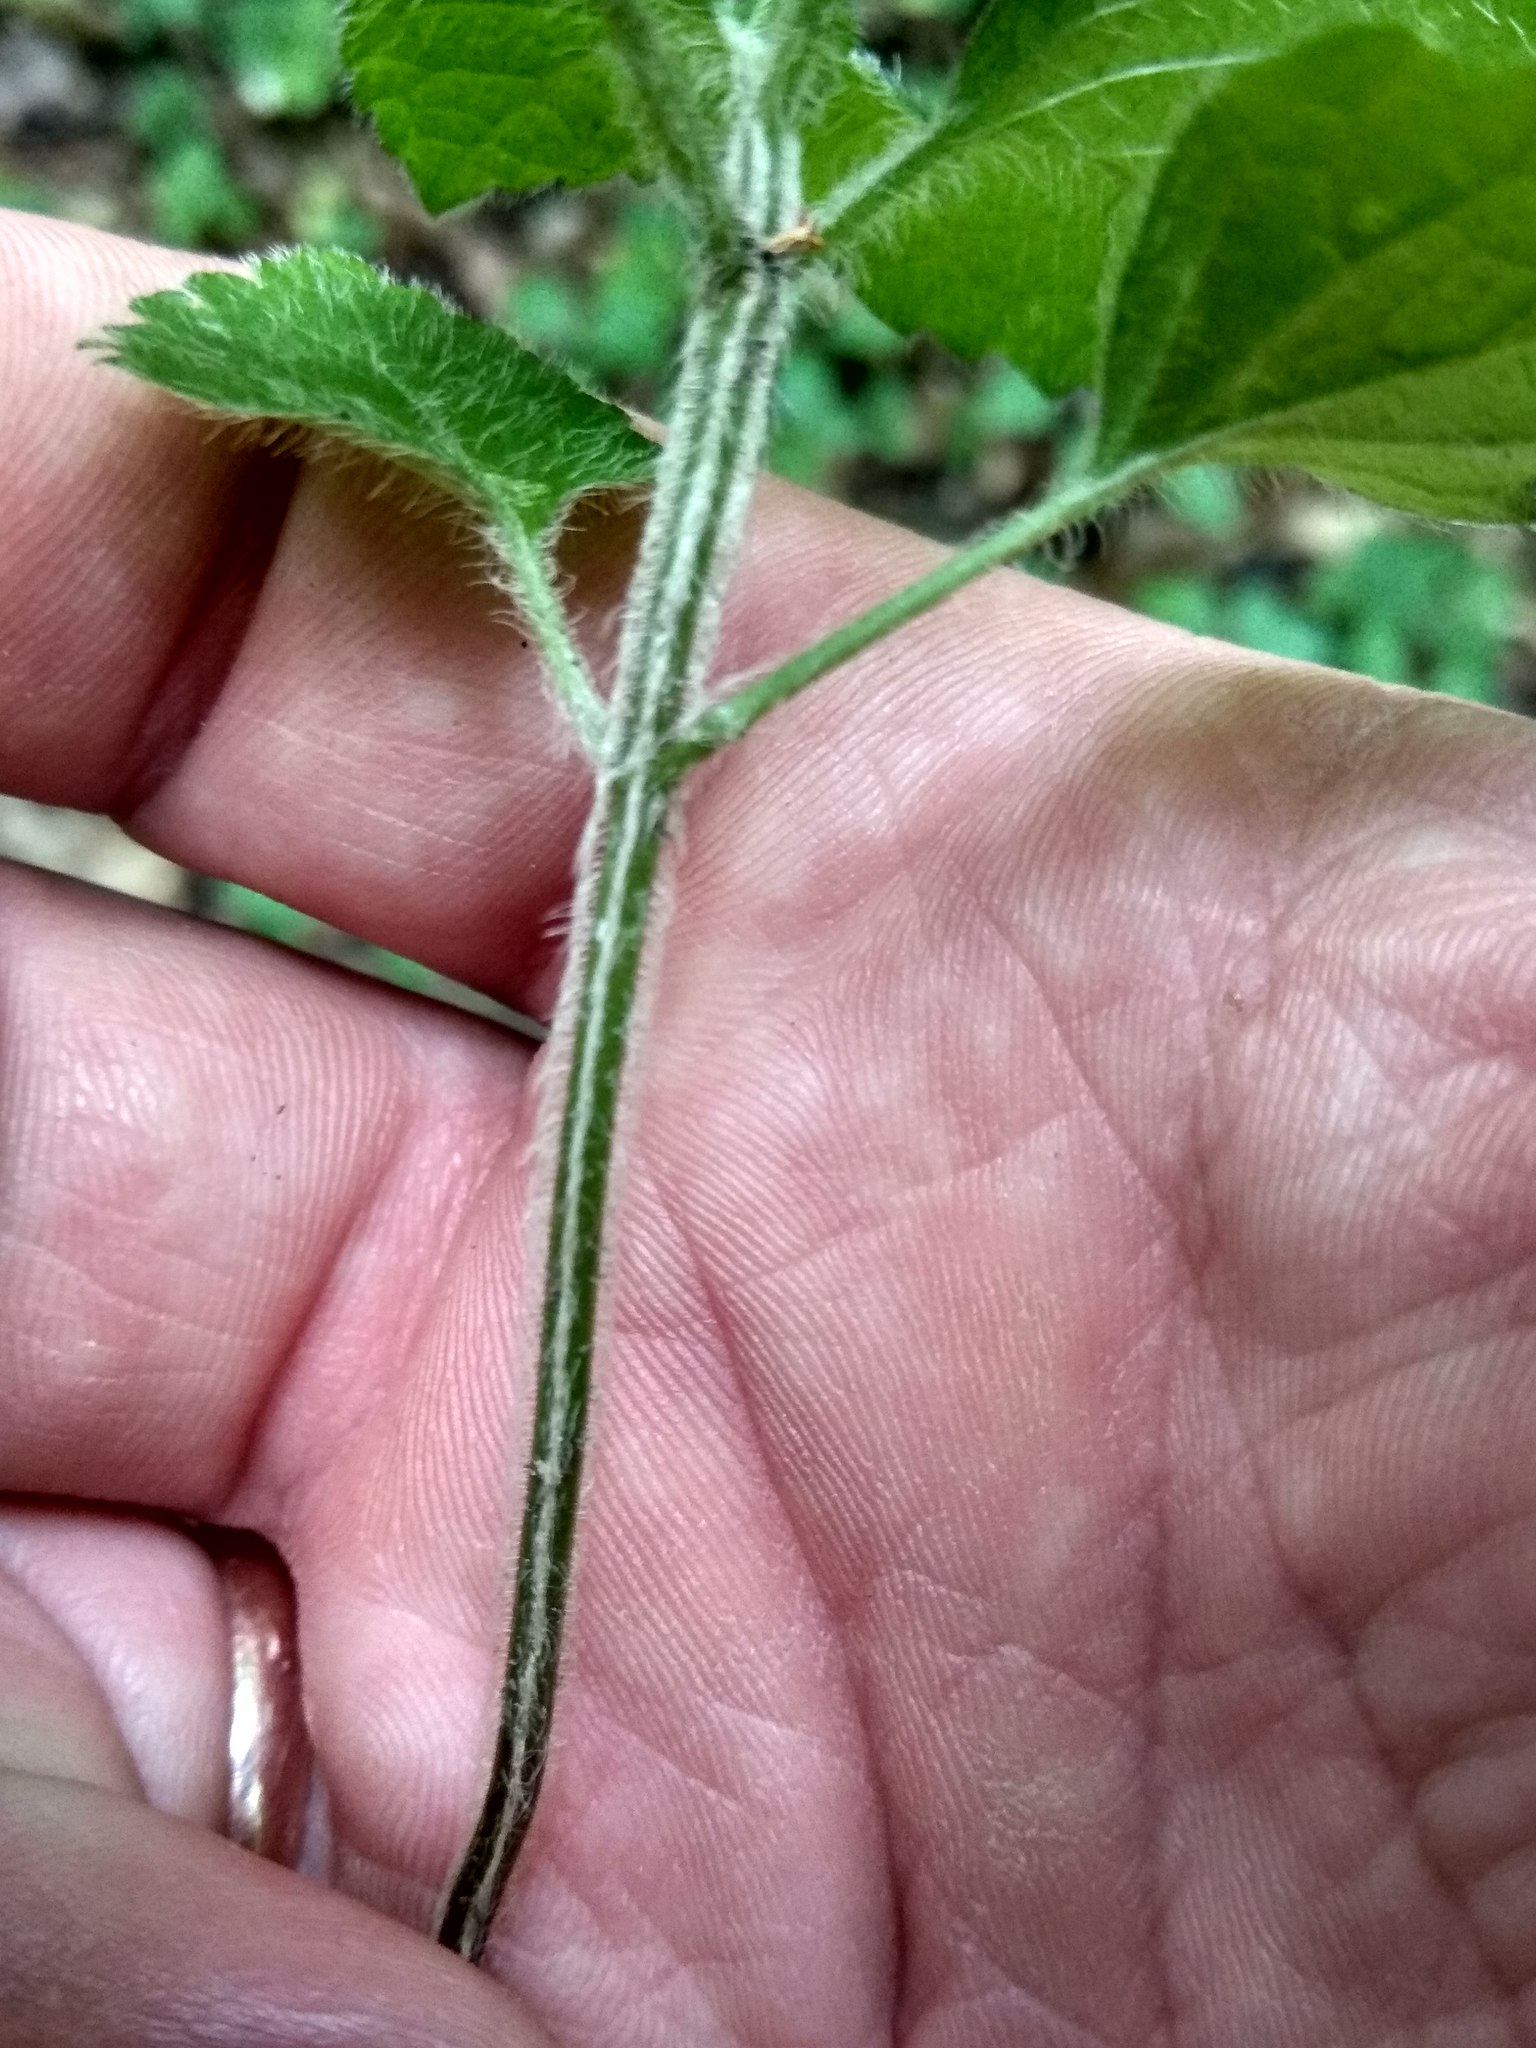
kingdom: Plantae
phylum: Tracheophyta
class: Magnoliopsida
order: Lamiales
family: Lamiaceae
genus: Lamium
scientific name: Lamium galeobdolon
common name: Yellow archangel
